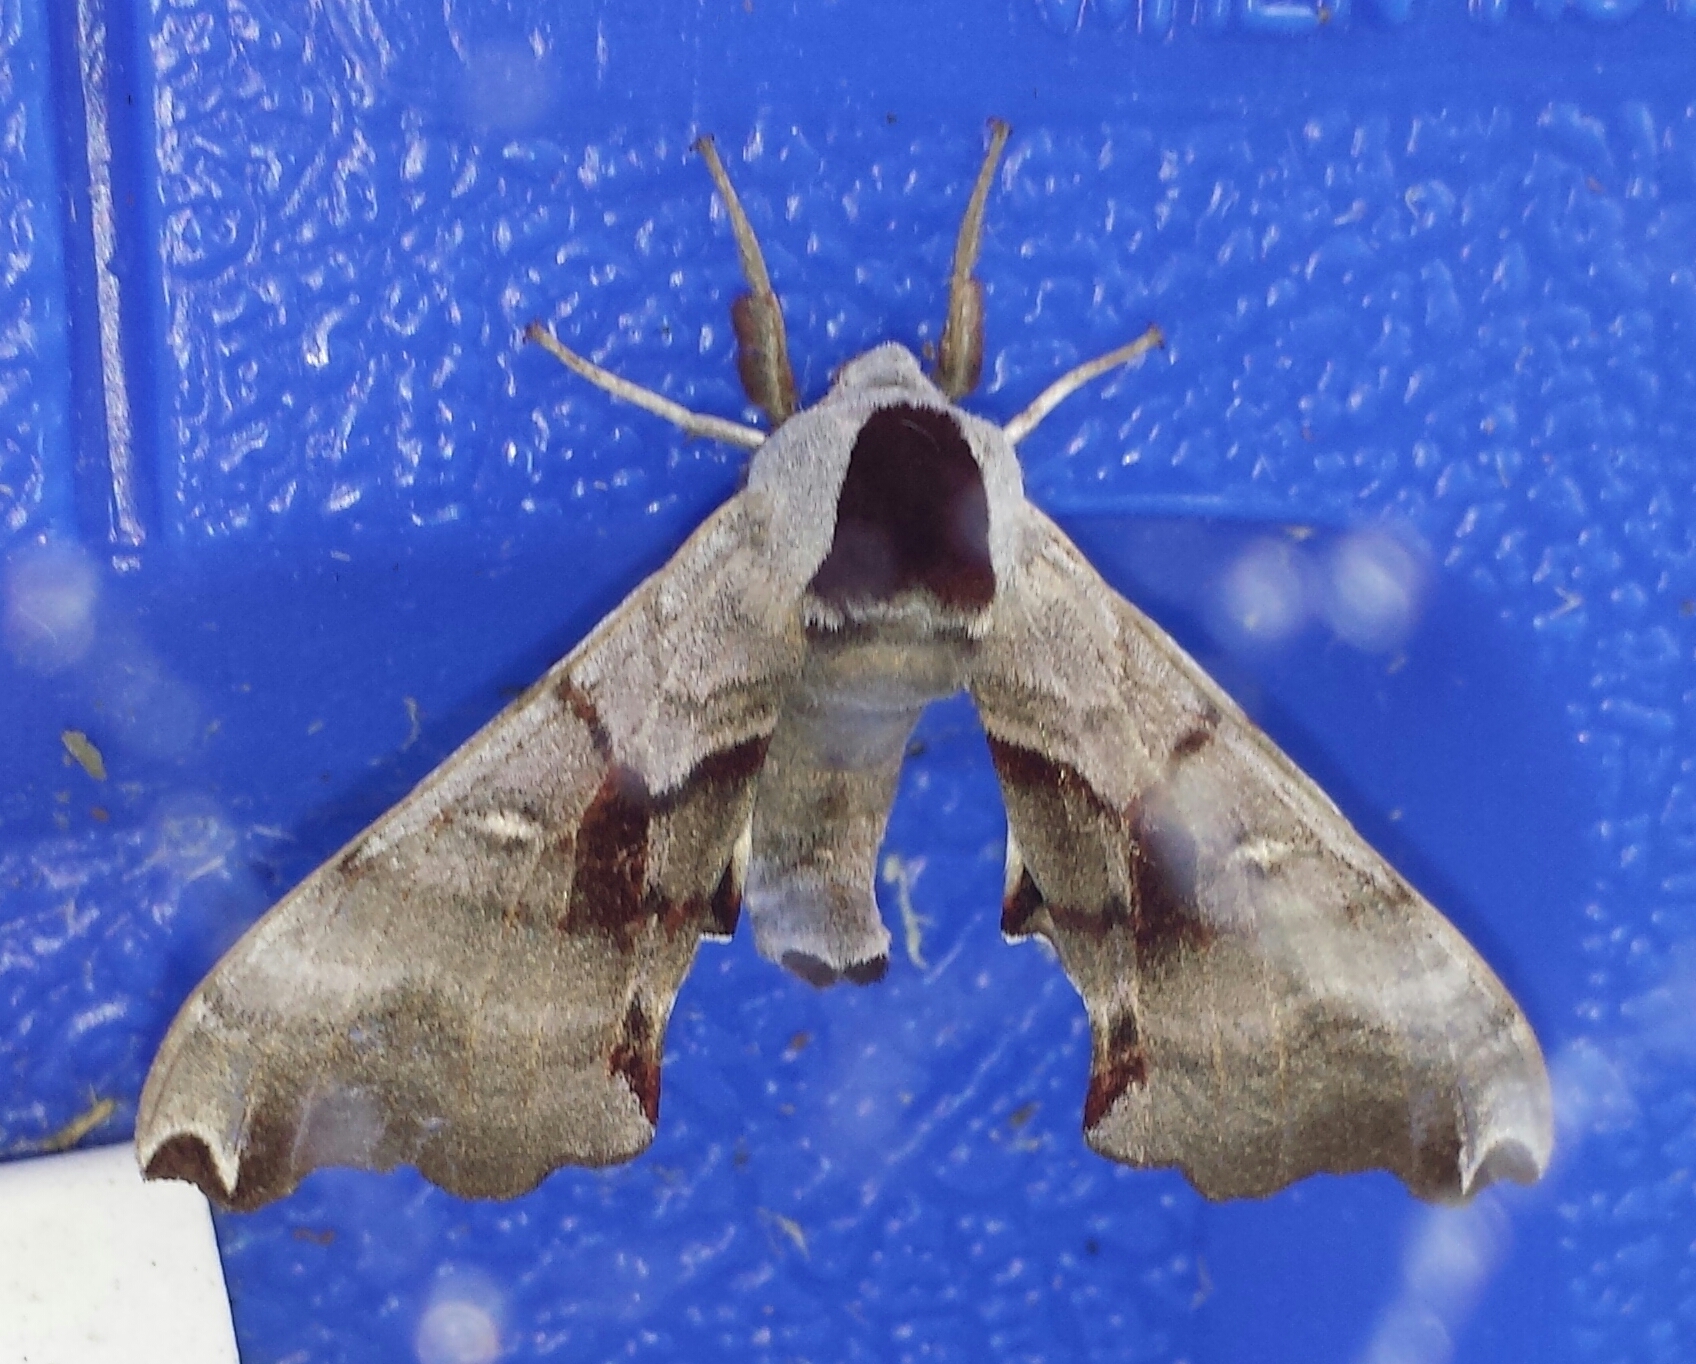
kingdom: Animalia
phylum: Arthropoda
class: Insecta
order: Lepidoptera
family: Sphingidae
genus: Smerinthus
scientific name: Smerinthus jamaicensis
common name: Twin spotted sphinx
